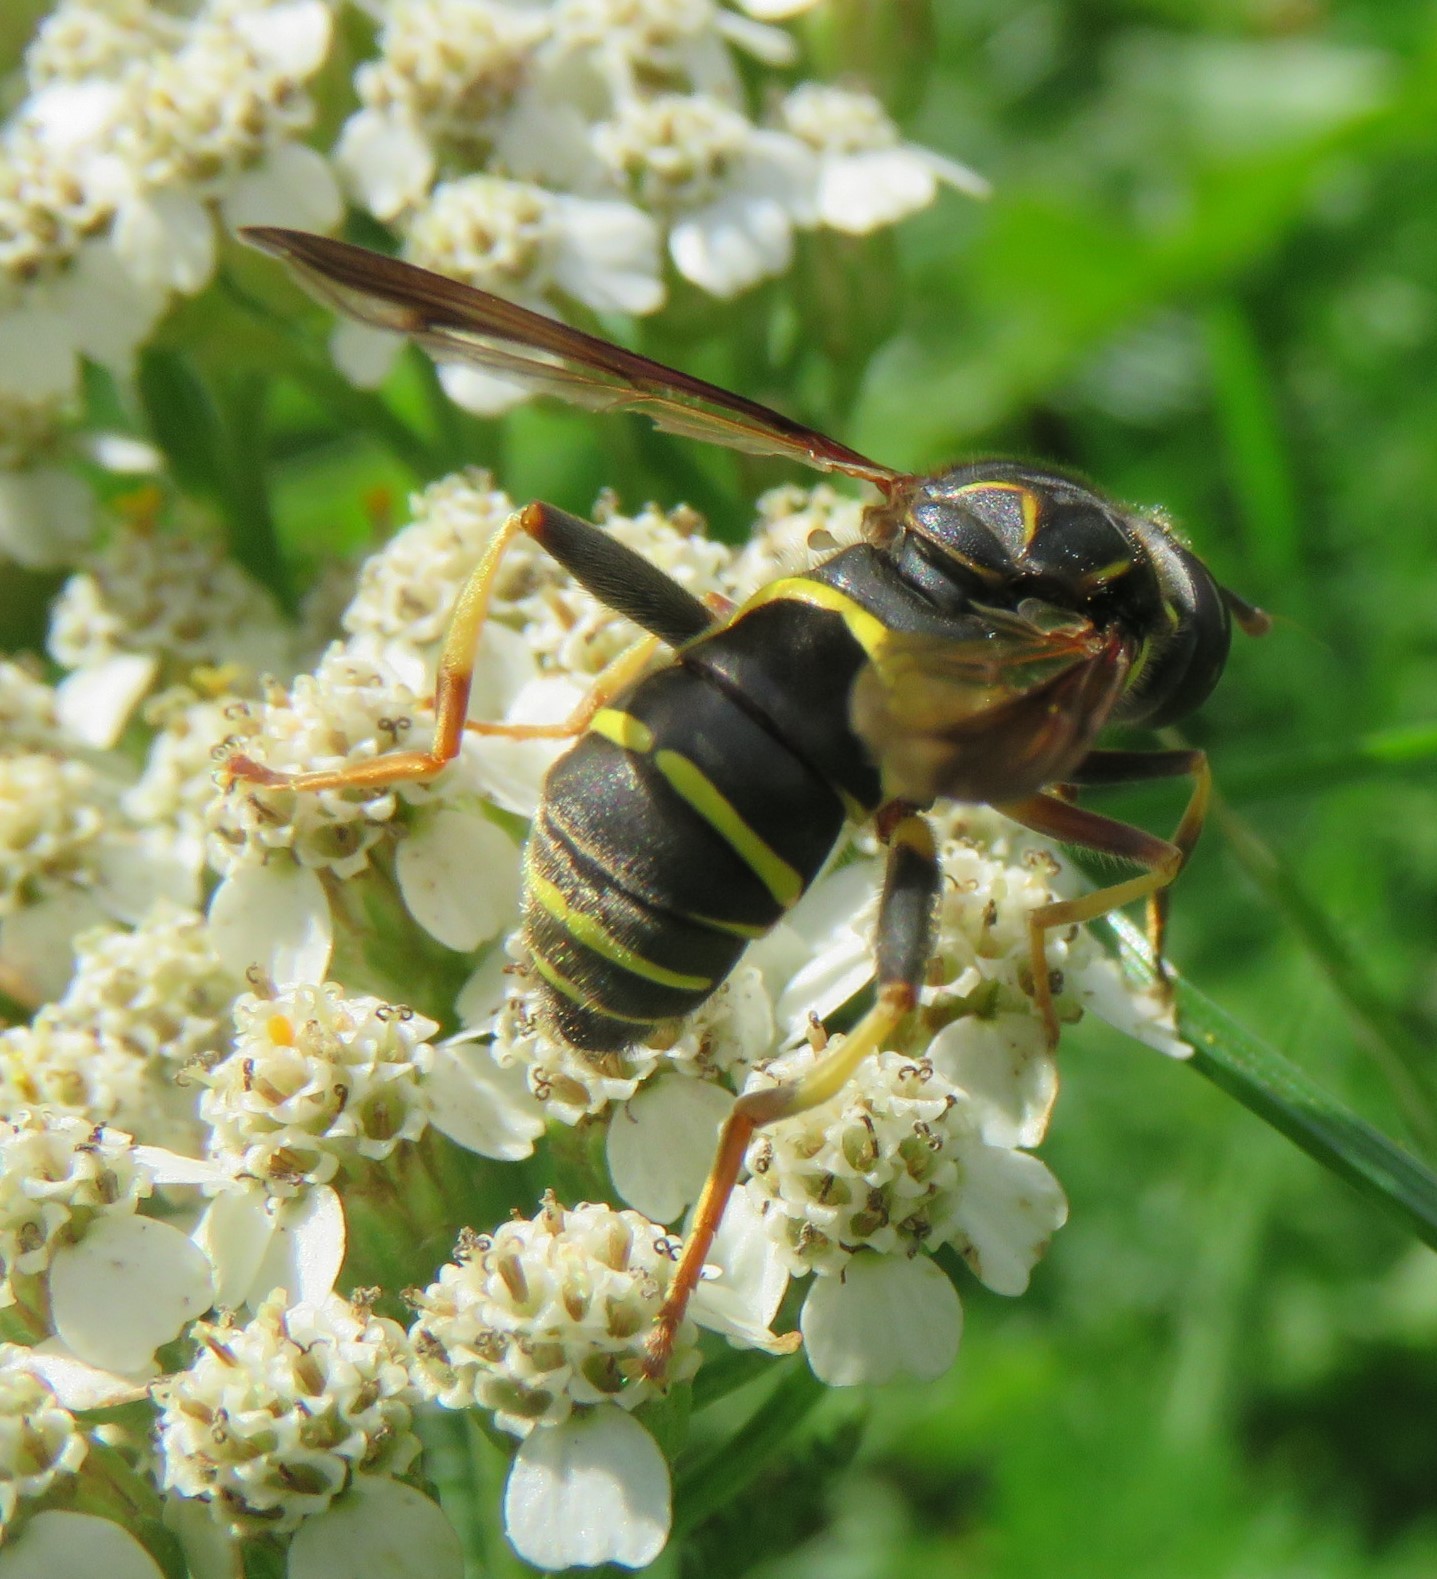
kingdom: Animalia
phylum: Arthropoda
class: Insecta
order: Diptera
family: Syrphidae
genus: Spilomyia
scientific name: Spilomyia sayi
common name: Four-lined hornet fly
